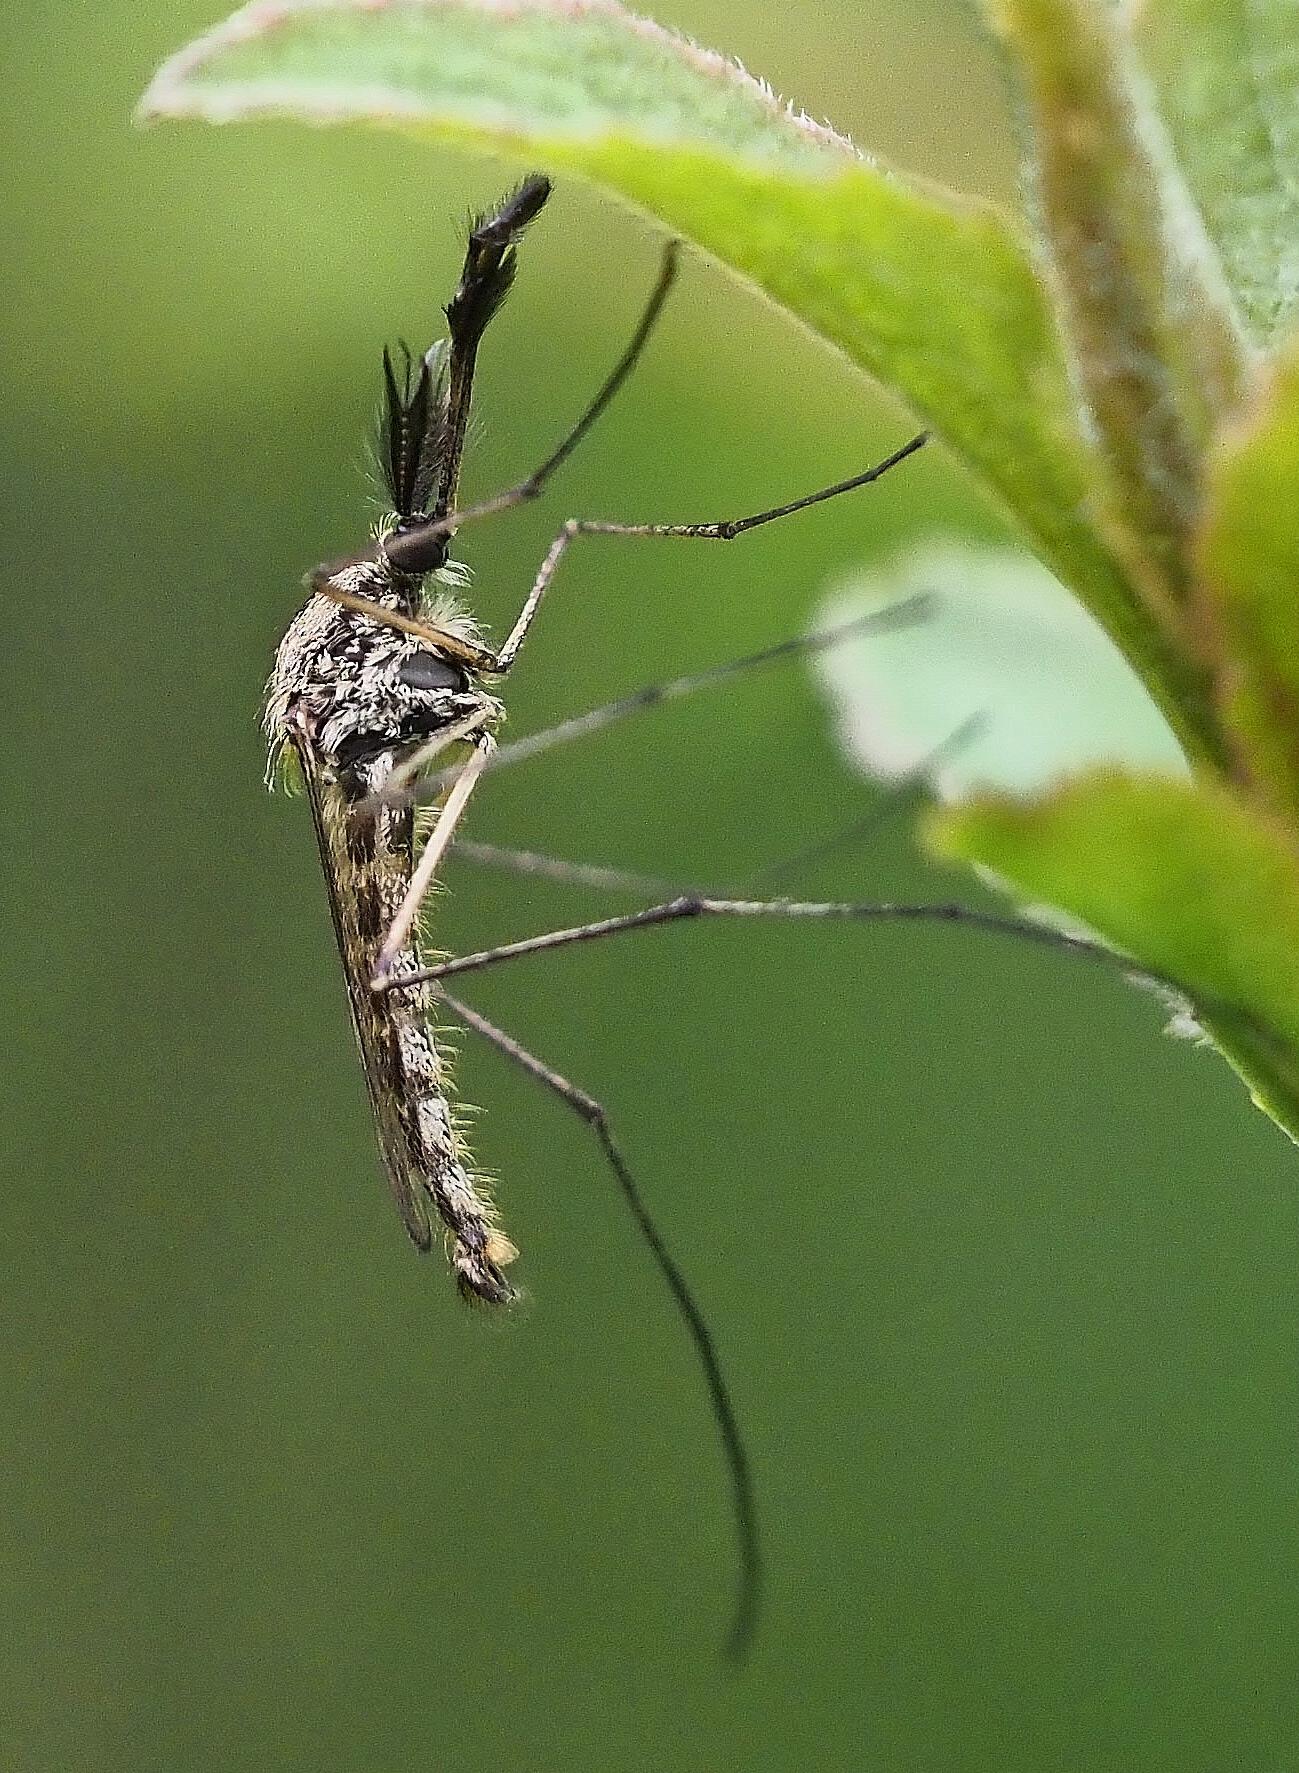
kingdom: Animalia
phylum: Arthropoda
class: Insecta
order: Diptera
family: Culicidae
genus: Aedes
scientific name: Aedes punctor
